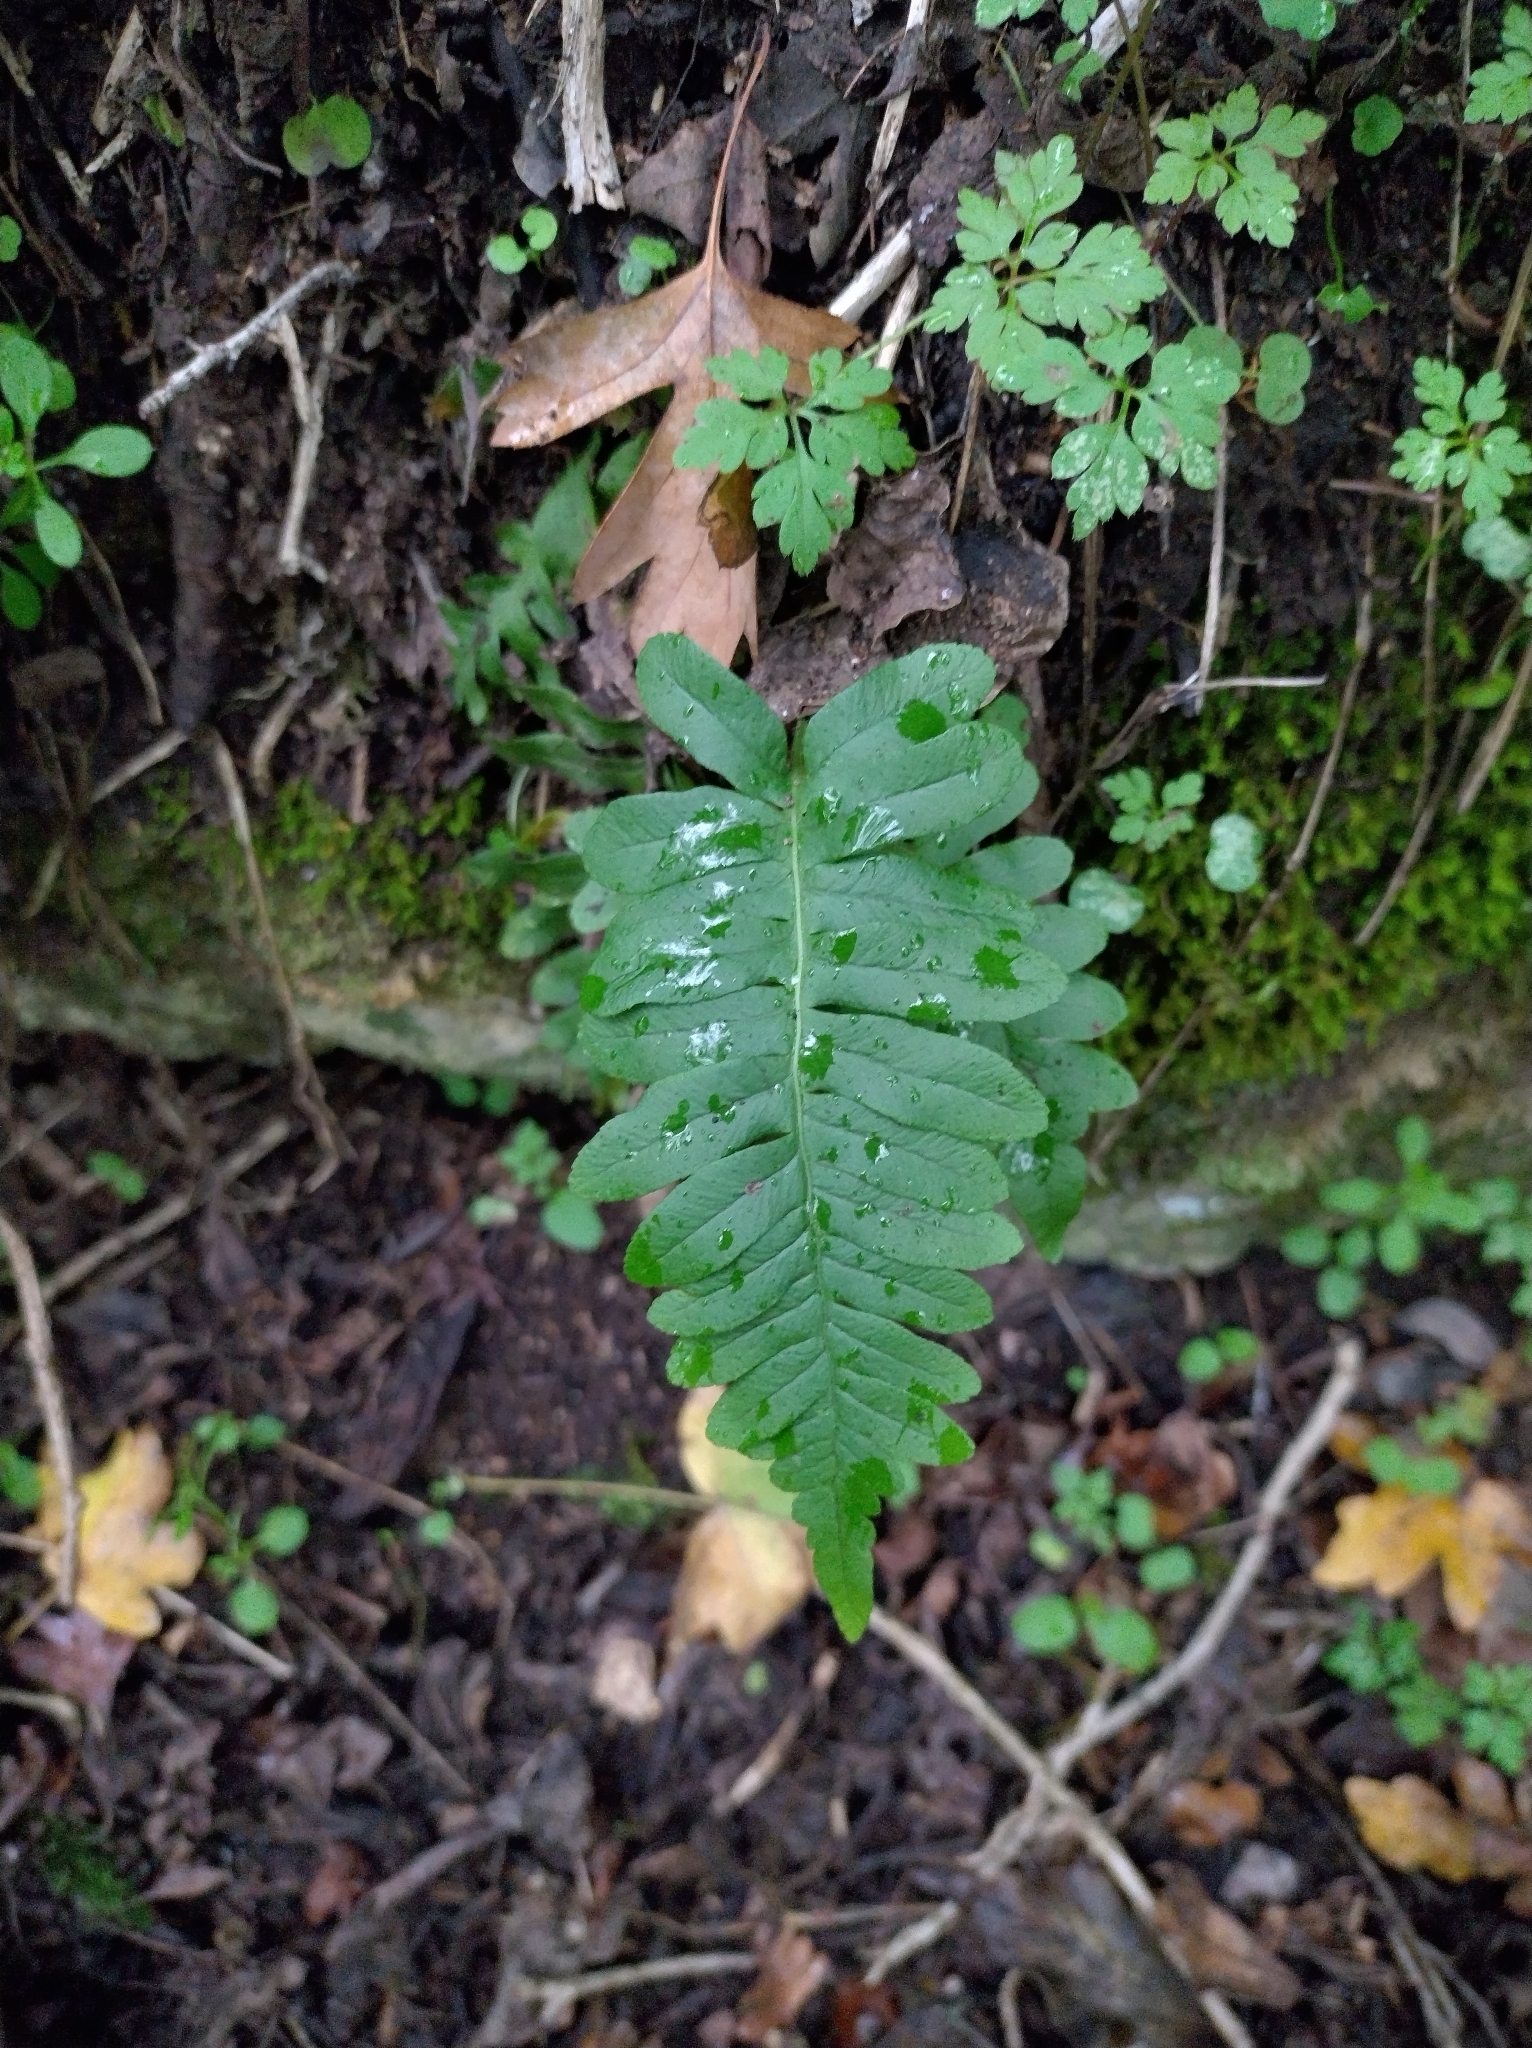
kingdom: Plantae
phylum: Tracheophyta
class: Polypodiopsida
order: Polypodiales
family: Polypodiaceae
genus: Polypodium
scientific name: Polypodium vulgare
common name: Common polypody
